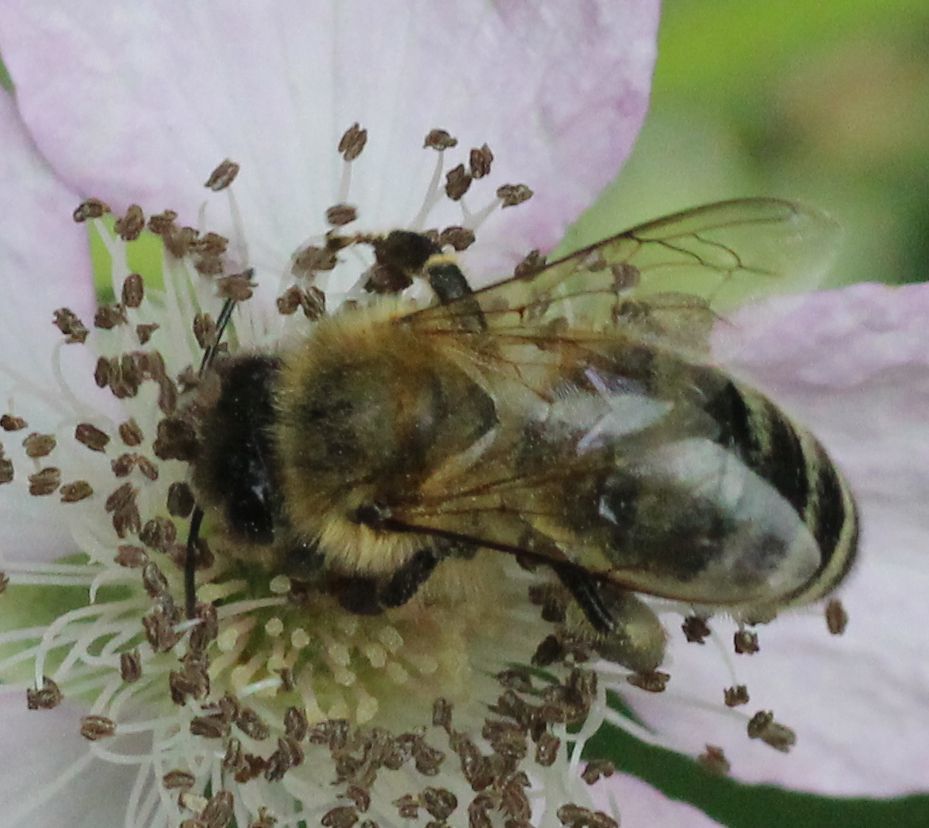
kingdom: Animalia
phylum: Arthropoda
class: Insecta
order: Hymenoptera
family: Apidae
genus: Apis
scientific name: Apis mellifera
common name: Honey bee
